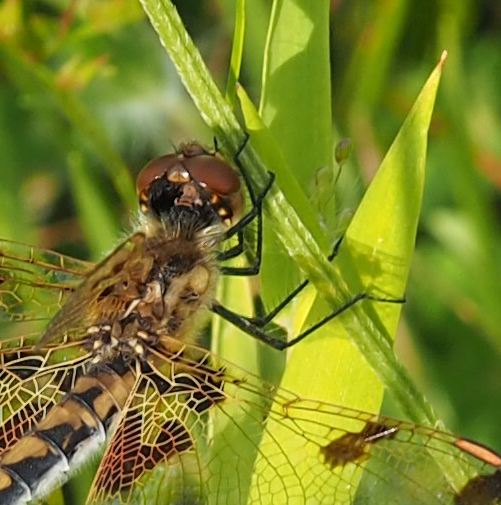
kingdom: Animalia
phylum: Arthropoda
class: Insecta
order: Odonata
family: Libellulidae
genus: Celithemis
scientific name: Celithemis elisa
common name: Calico pennant
